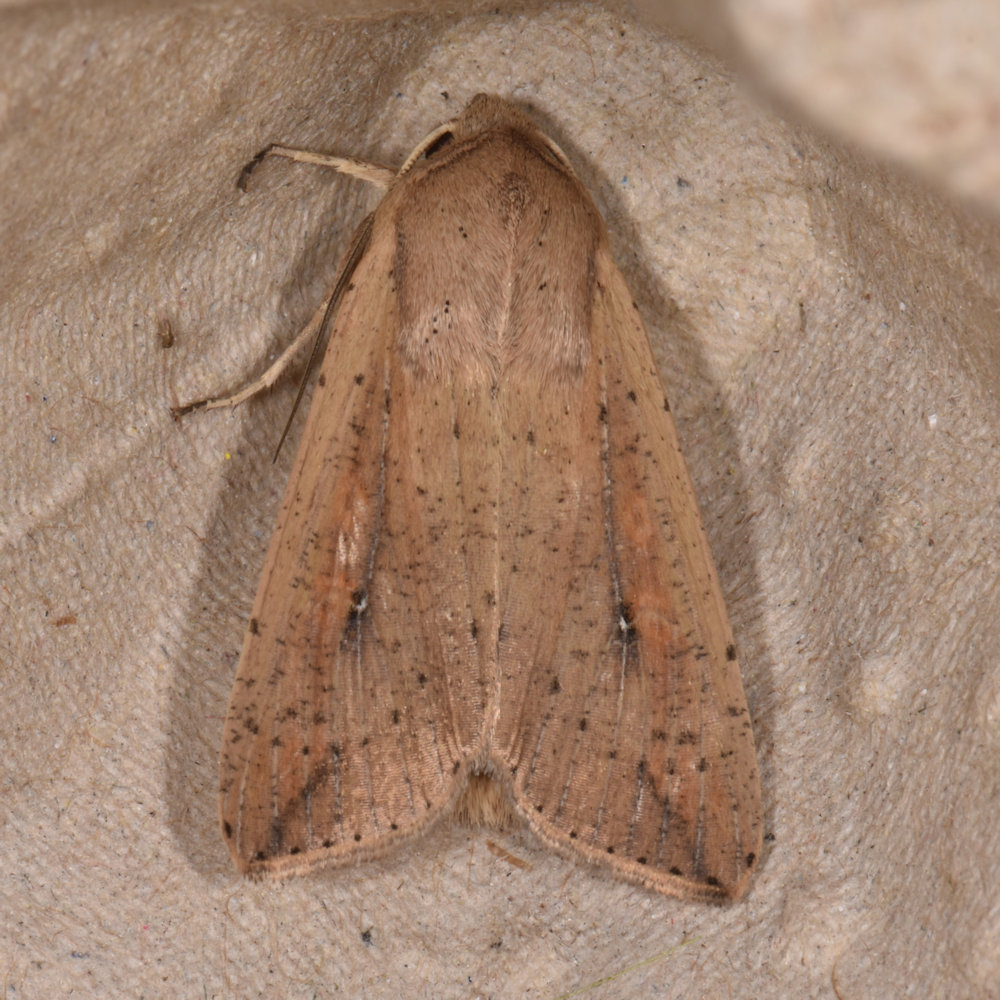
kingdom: Animalia
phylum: Arthropoda
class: Insecta
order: Lepidoptera
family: Noctuidae
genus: Mythimna
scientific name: Mythimna unipuncta
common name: White-speck
